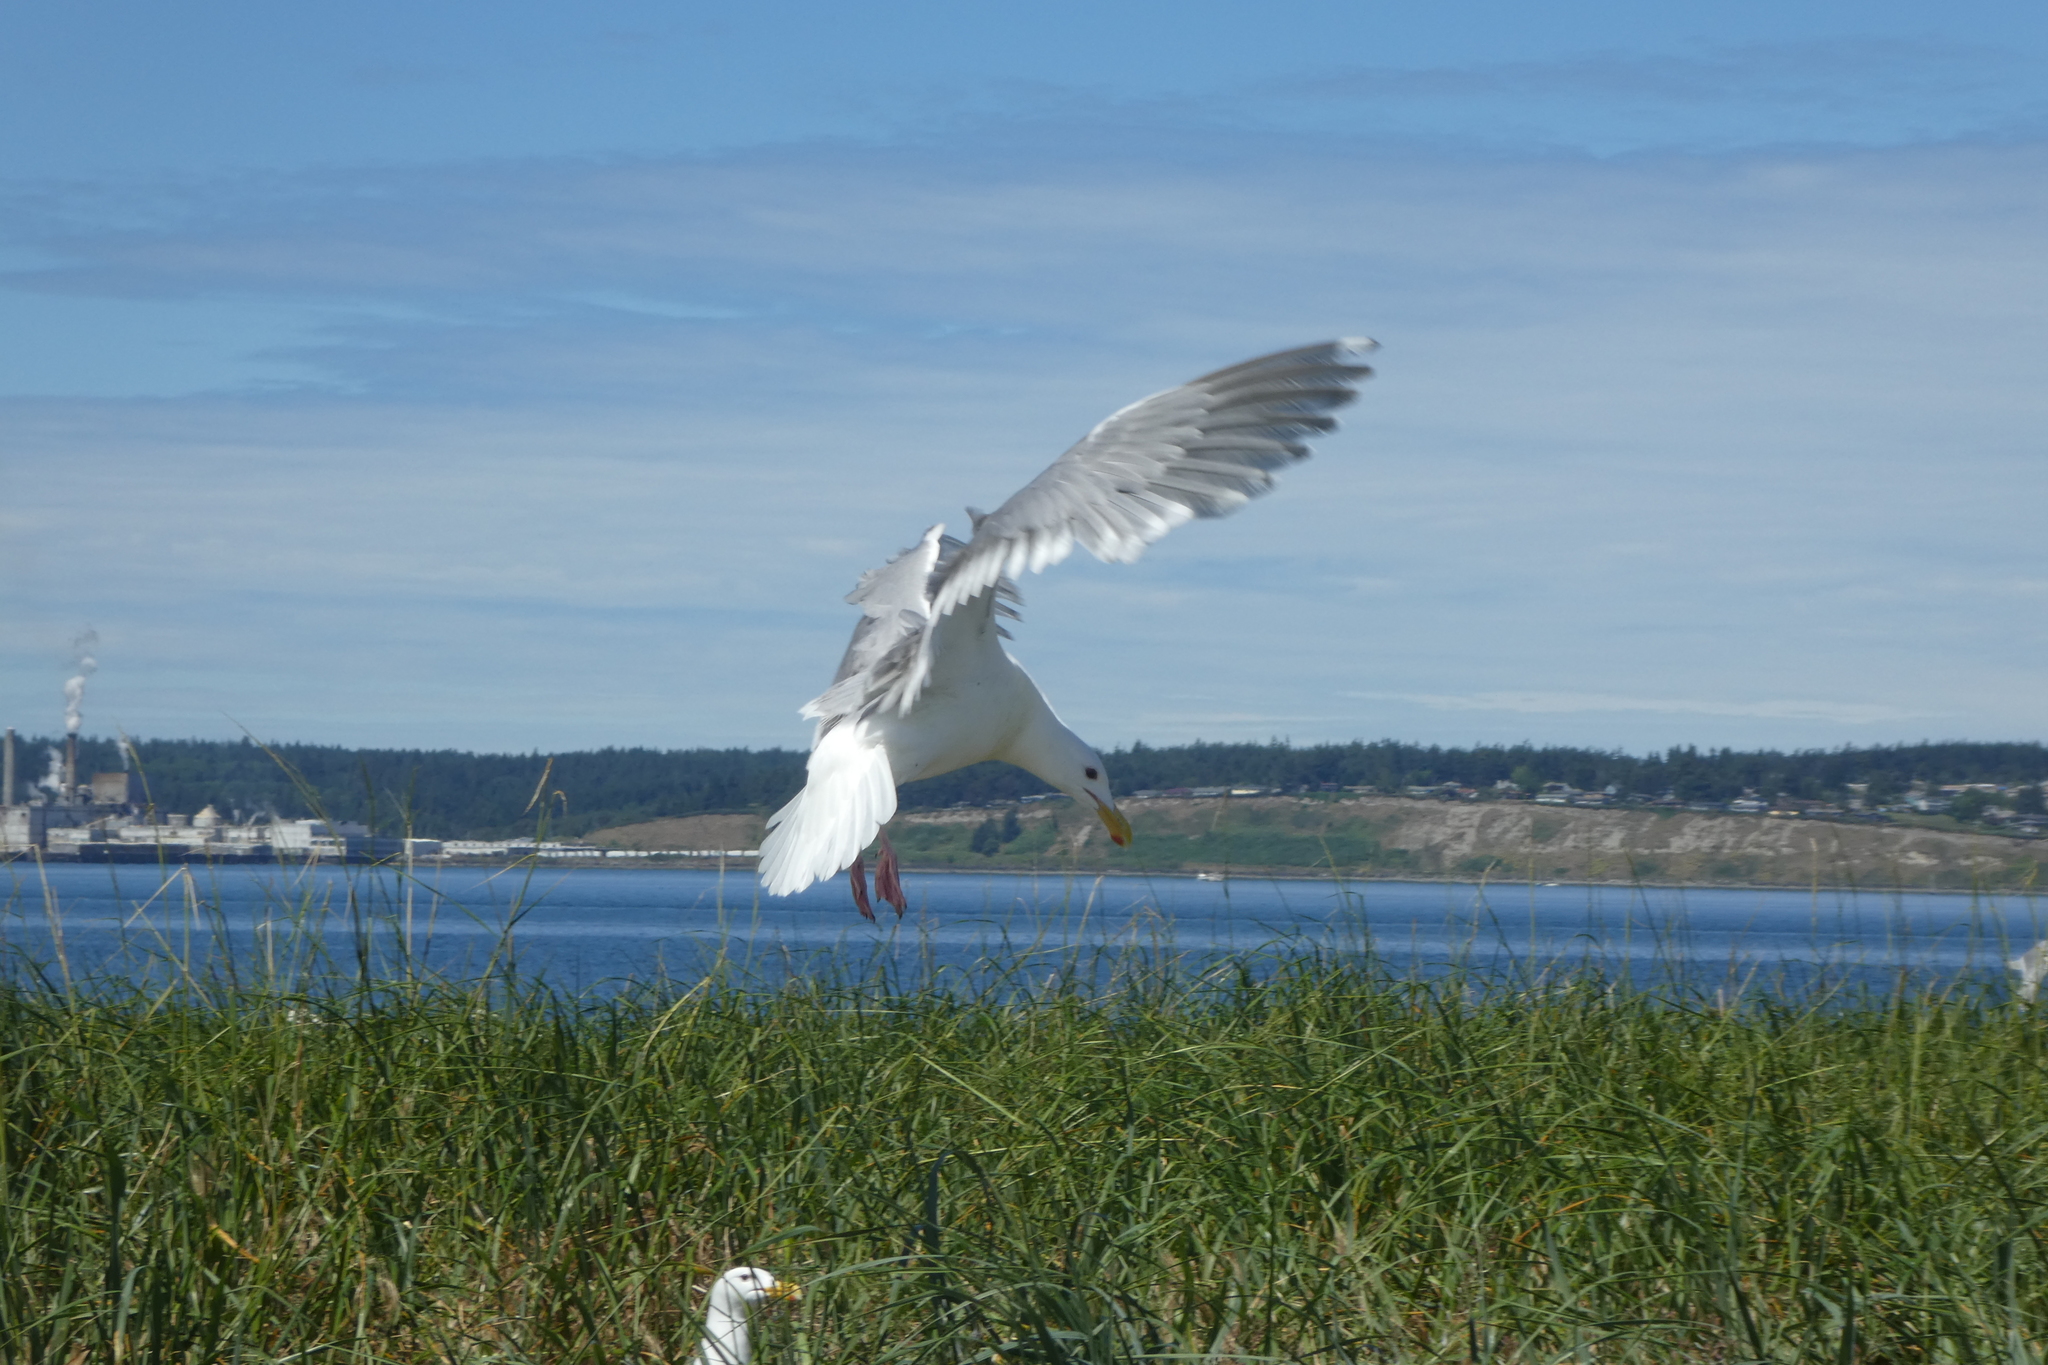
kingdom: Animalia
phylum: Chordata
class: Aves
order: Charadriiformes
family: Laridae
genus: Larus
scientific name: Larus
